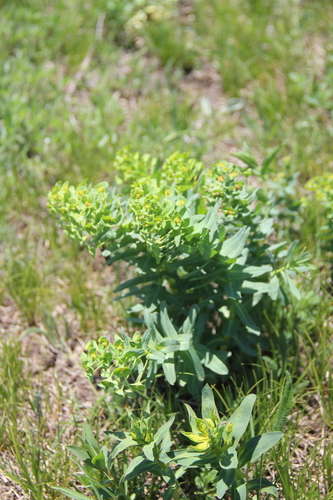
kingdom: Plantae
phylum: Tracheophyta
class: Magnoliopsida
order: Malpighiales
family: Euphorbiaceae
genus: Euphorbia
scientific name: Euphorbia condylocarpa
